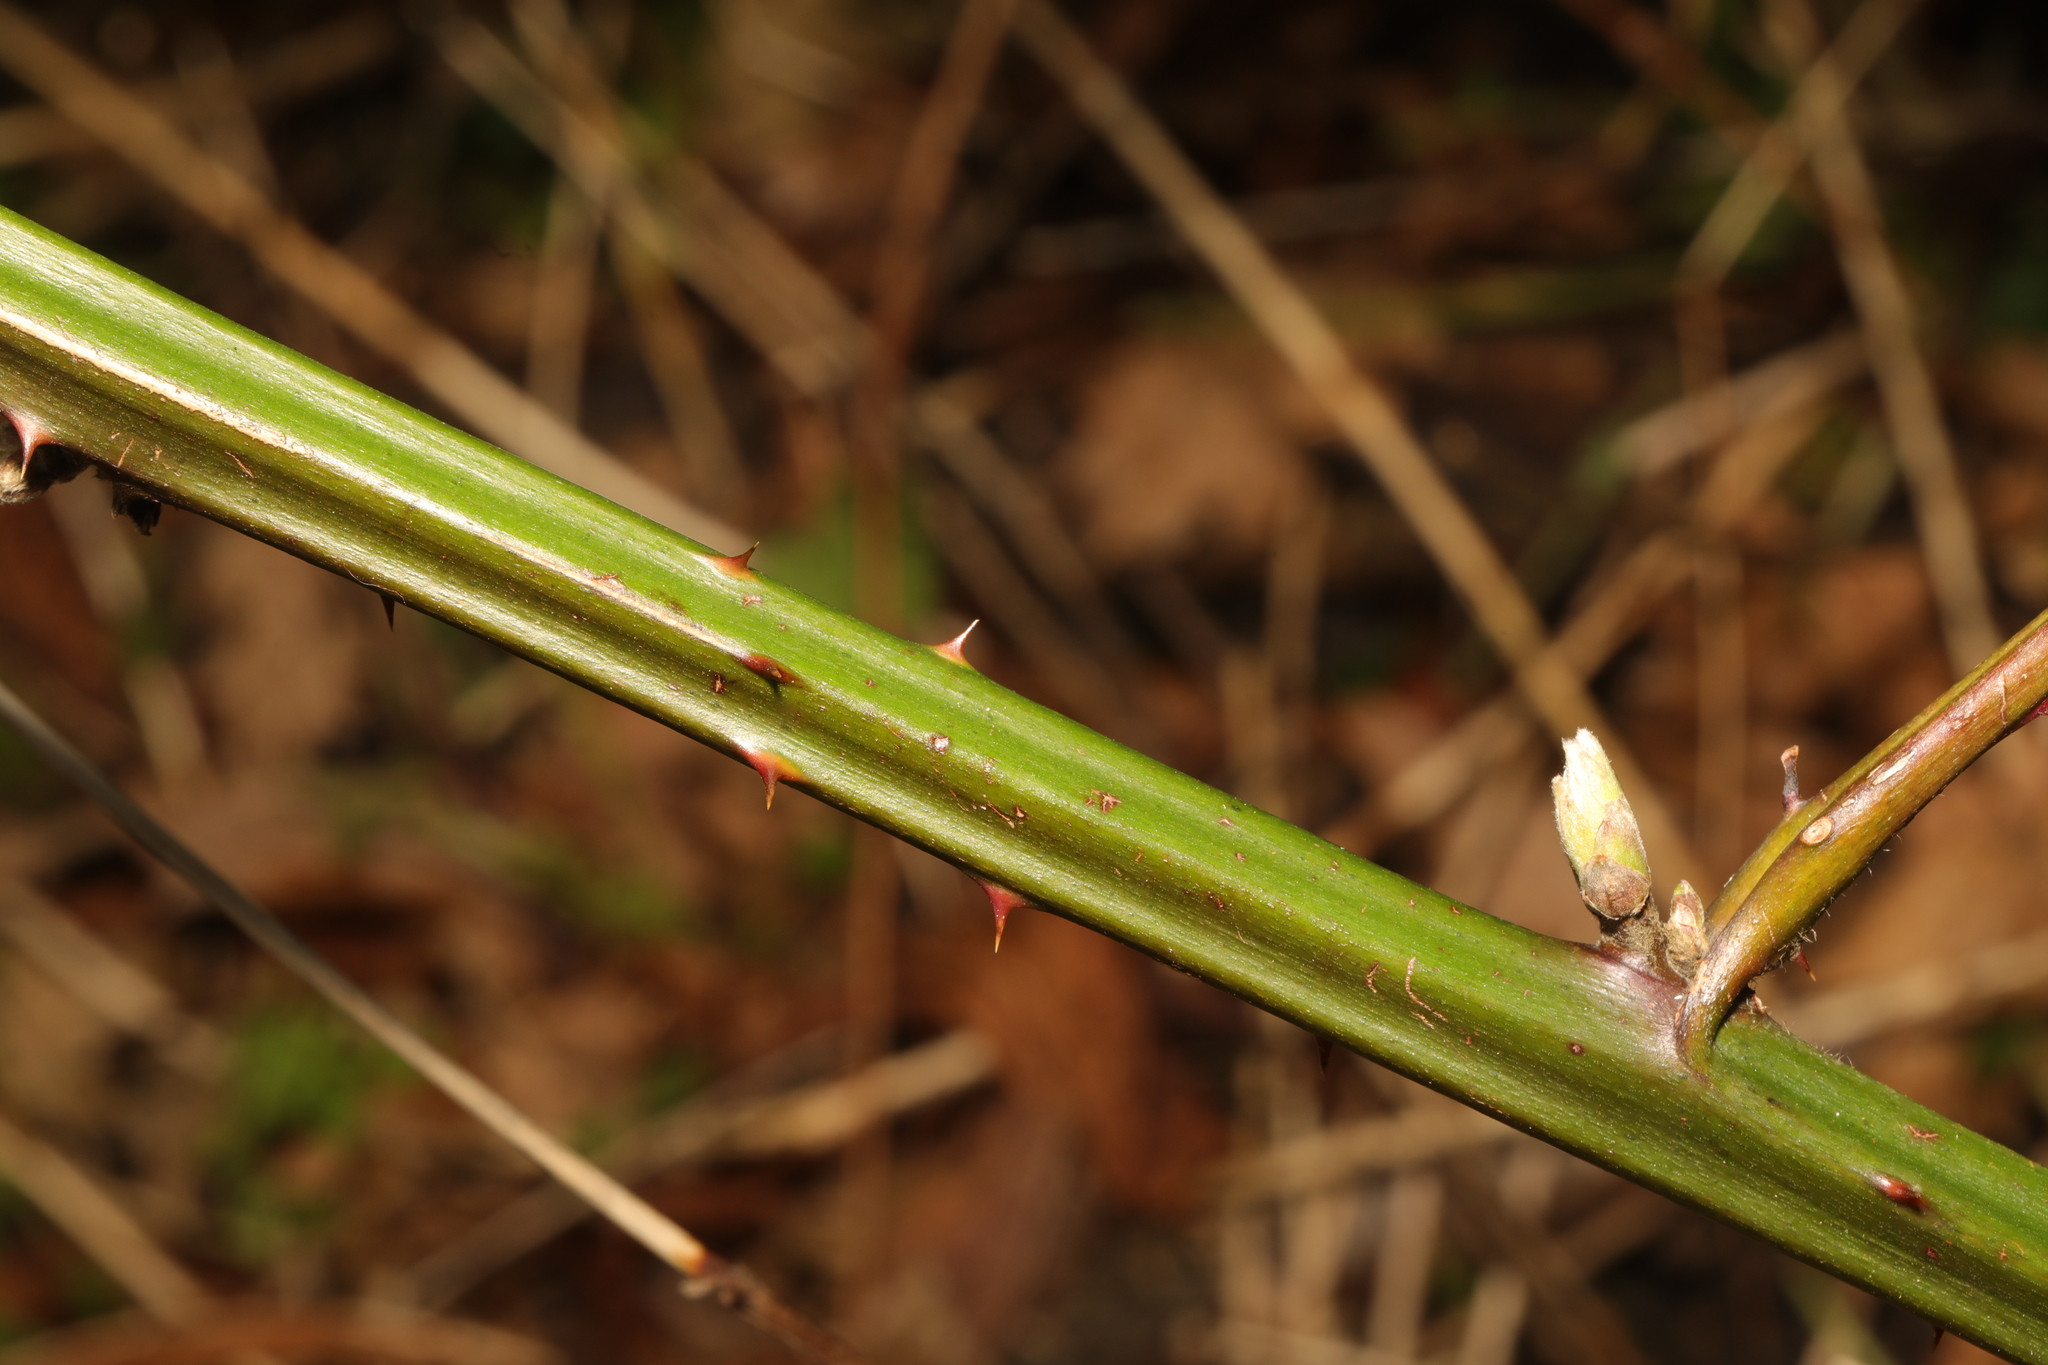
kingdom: Plantae
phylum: Tracheophyta
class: Magnoliopsida
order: Rosales
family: Rosaceae
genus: Rubus
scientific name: Rubus armeniacus
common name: Himalayan blackberry
